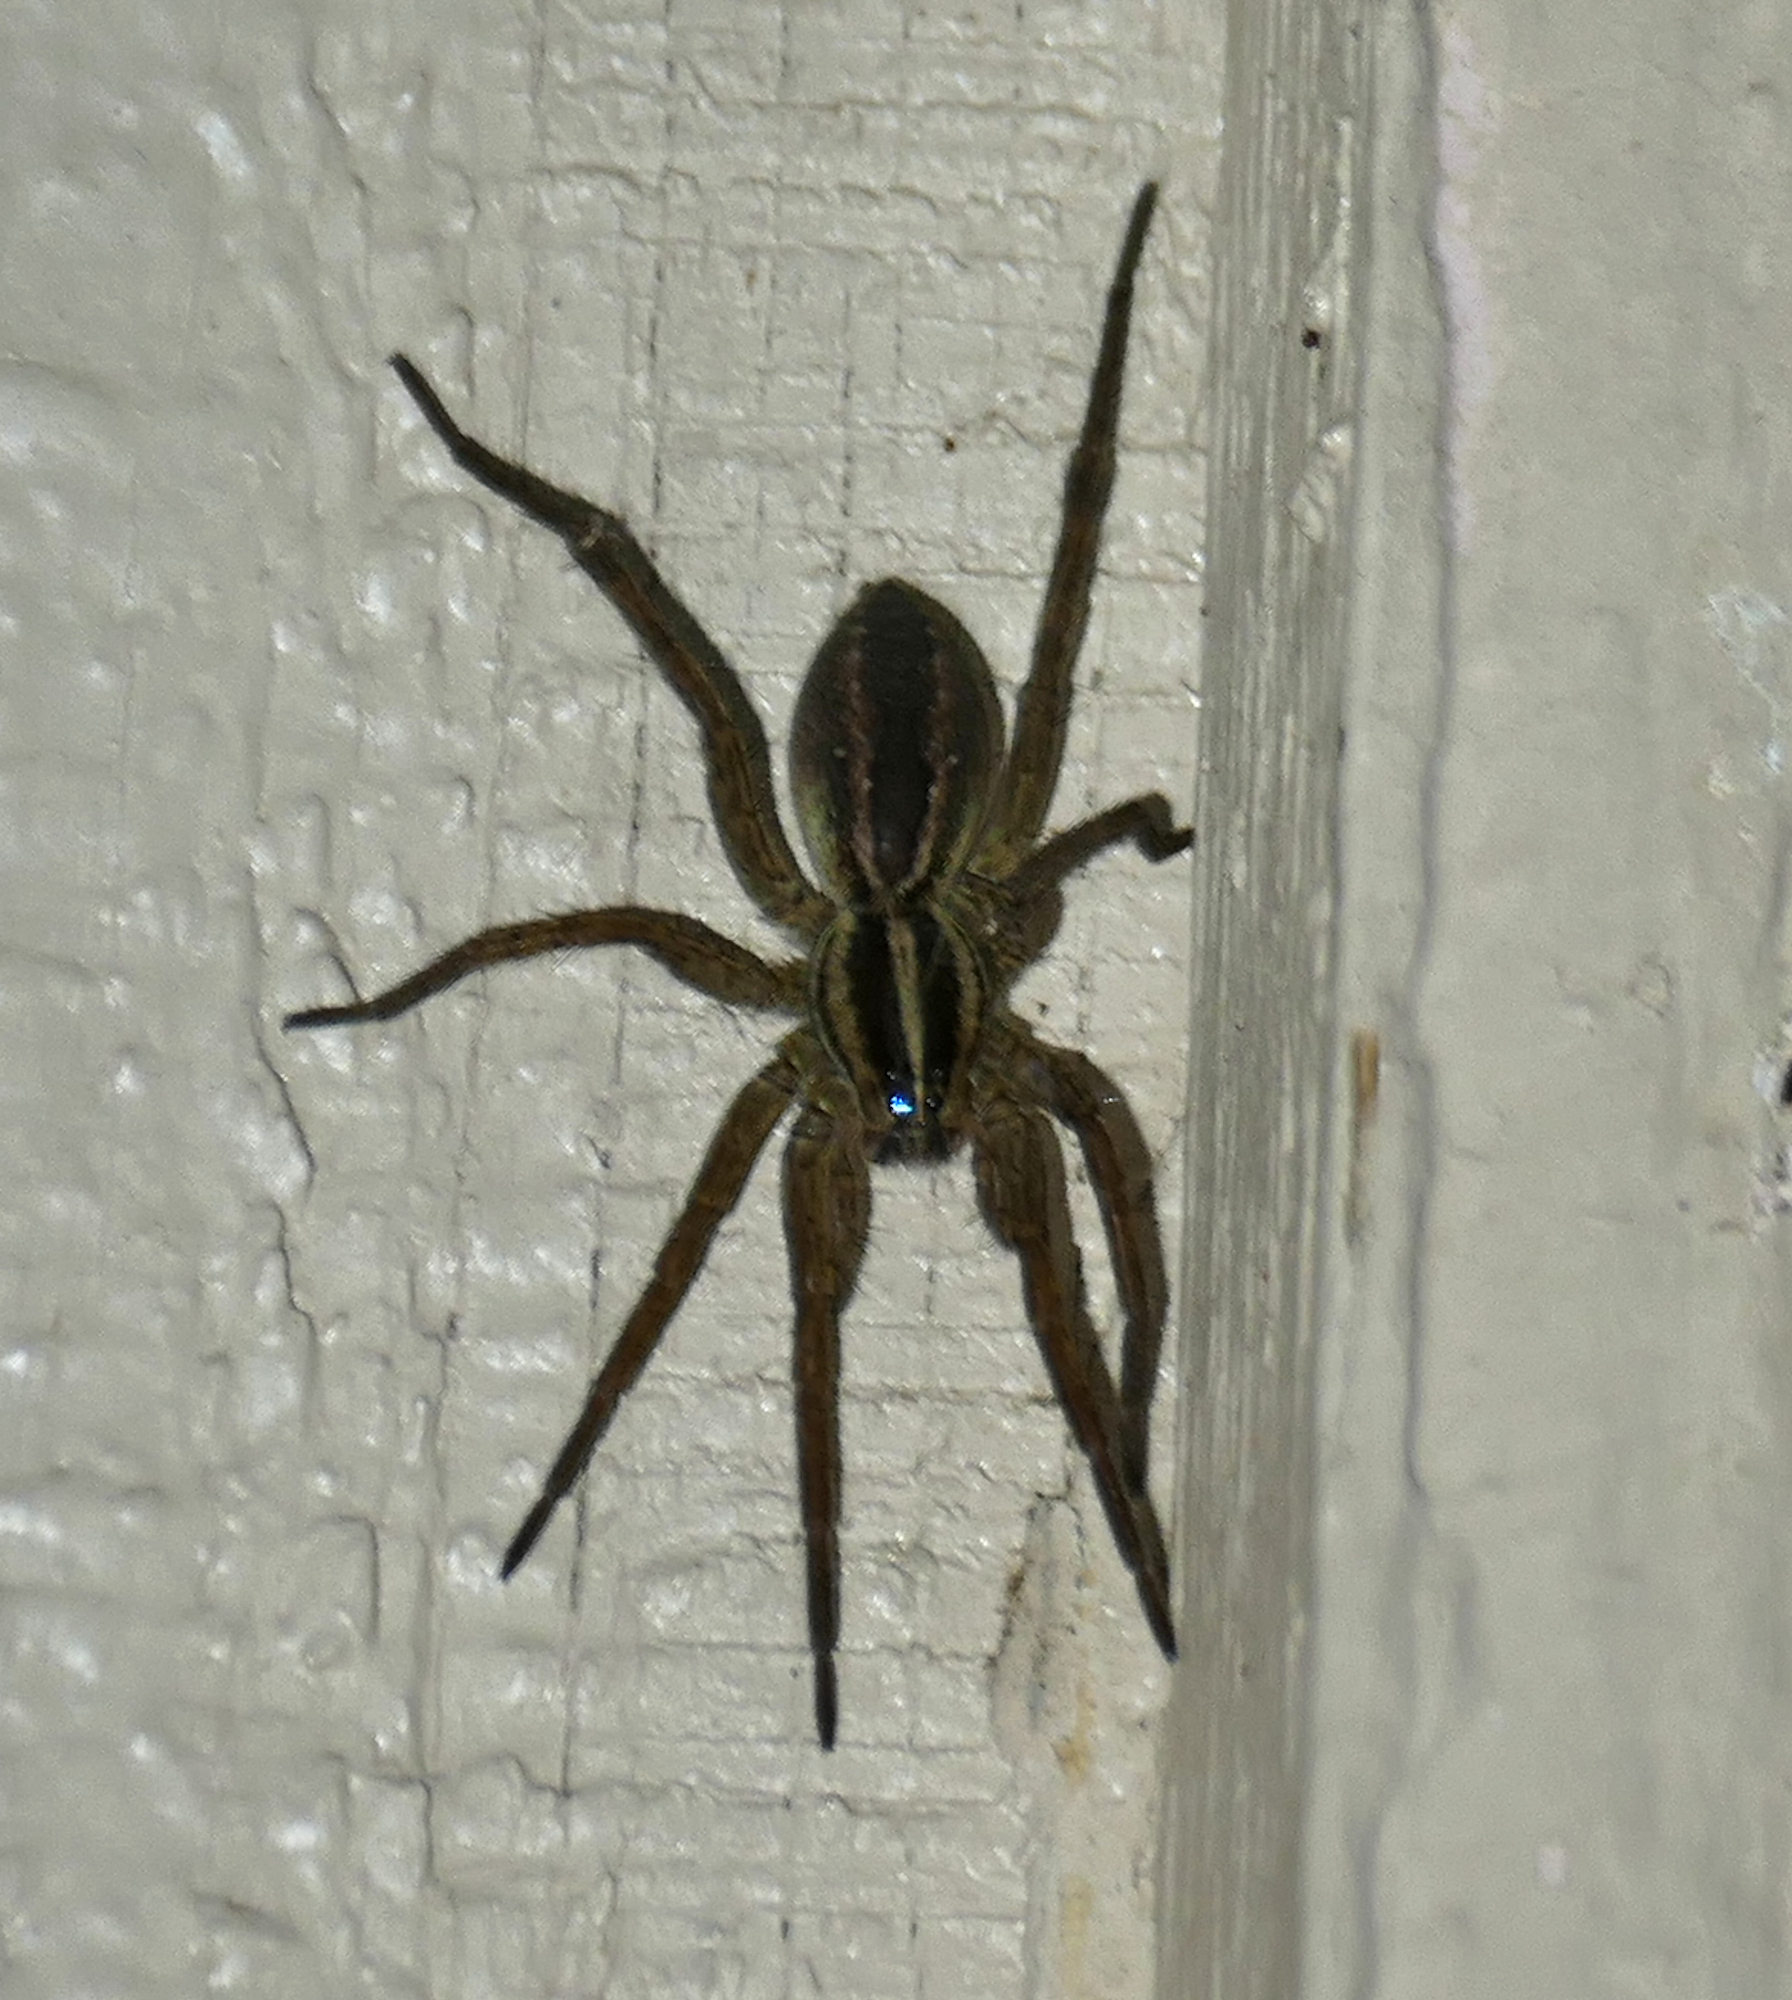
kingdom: Animalia
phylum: Arthropoda
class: Arachnida
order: Araneae
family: Lycosidae
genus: Rabidosa
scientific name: Rabidosa santrita
